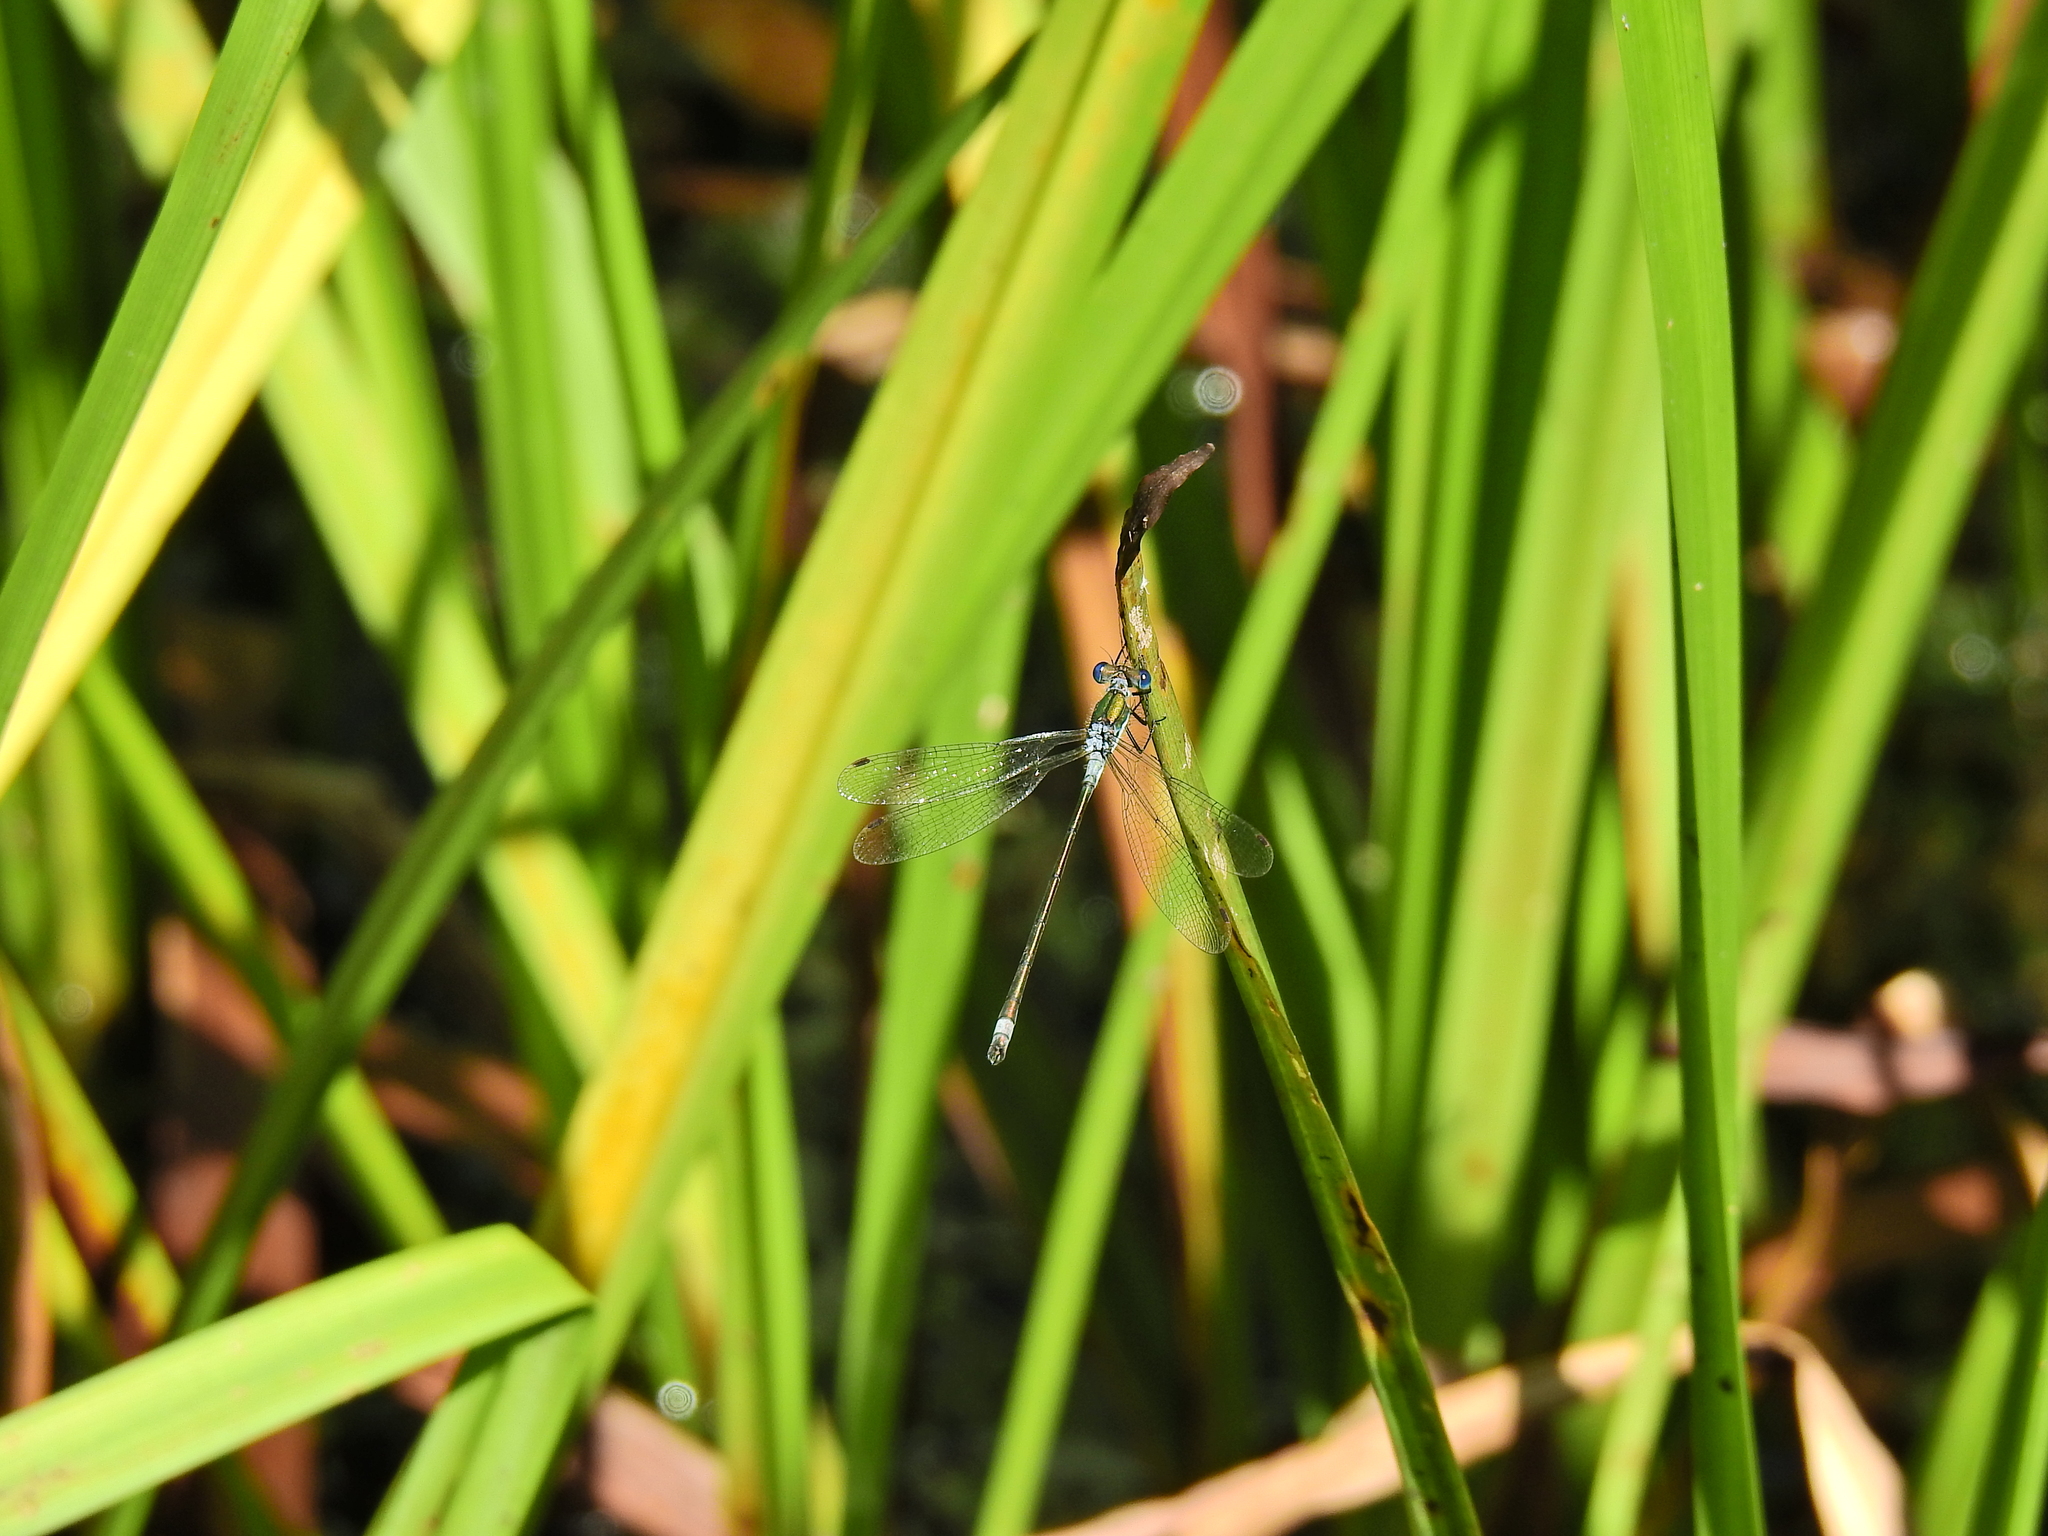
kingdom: Animalia
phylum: Arthropoda
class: Insecta
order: Odonata
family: Lestidae
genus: Lestes
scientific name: Lestes sponsa
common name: Common spreadwing
